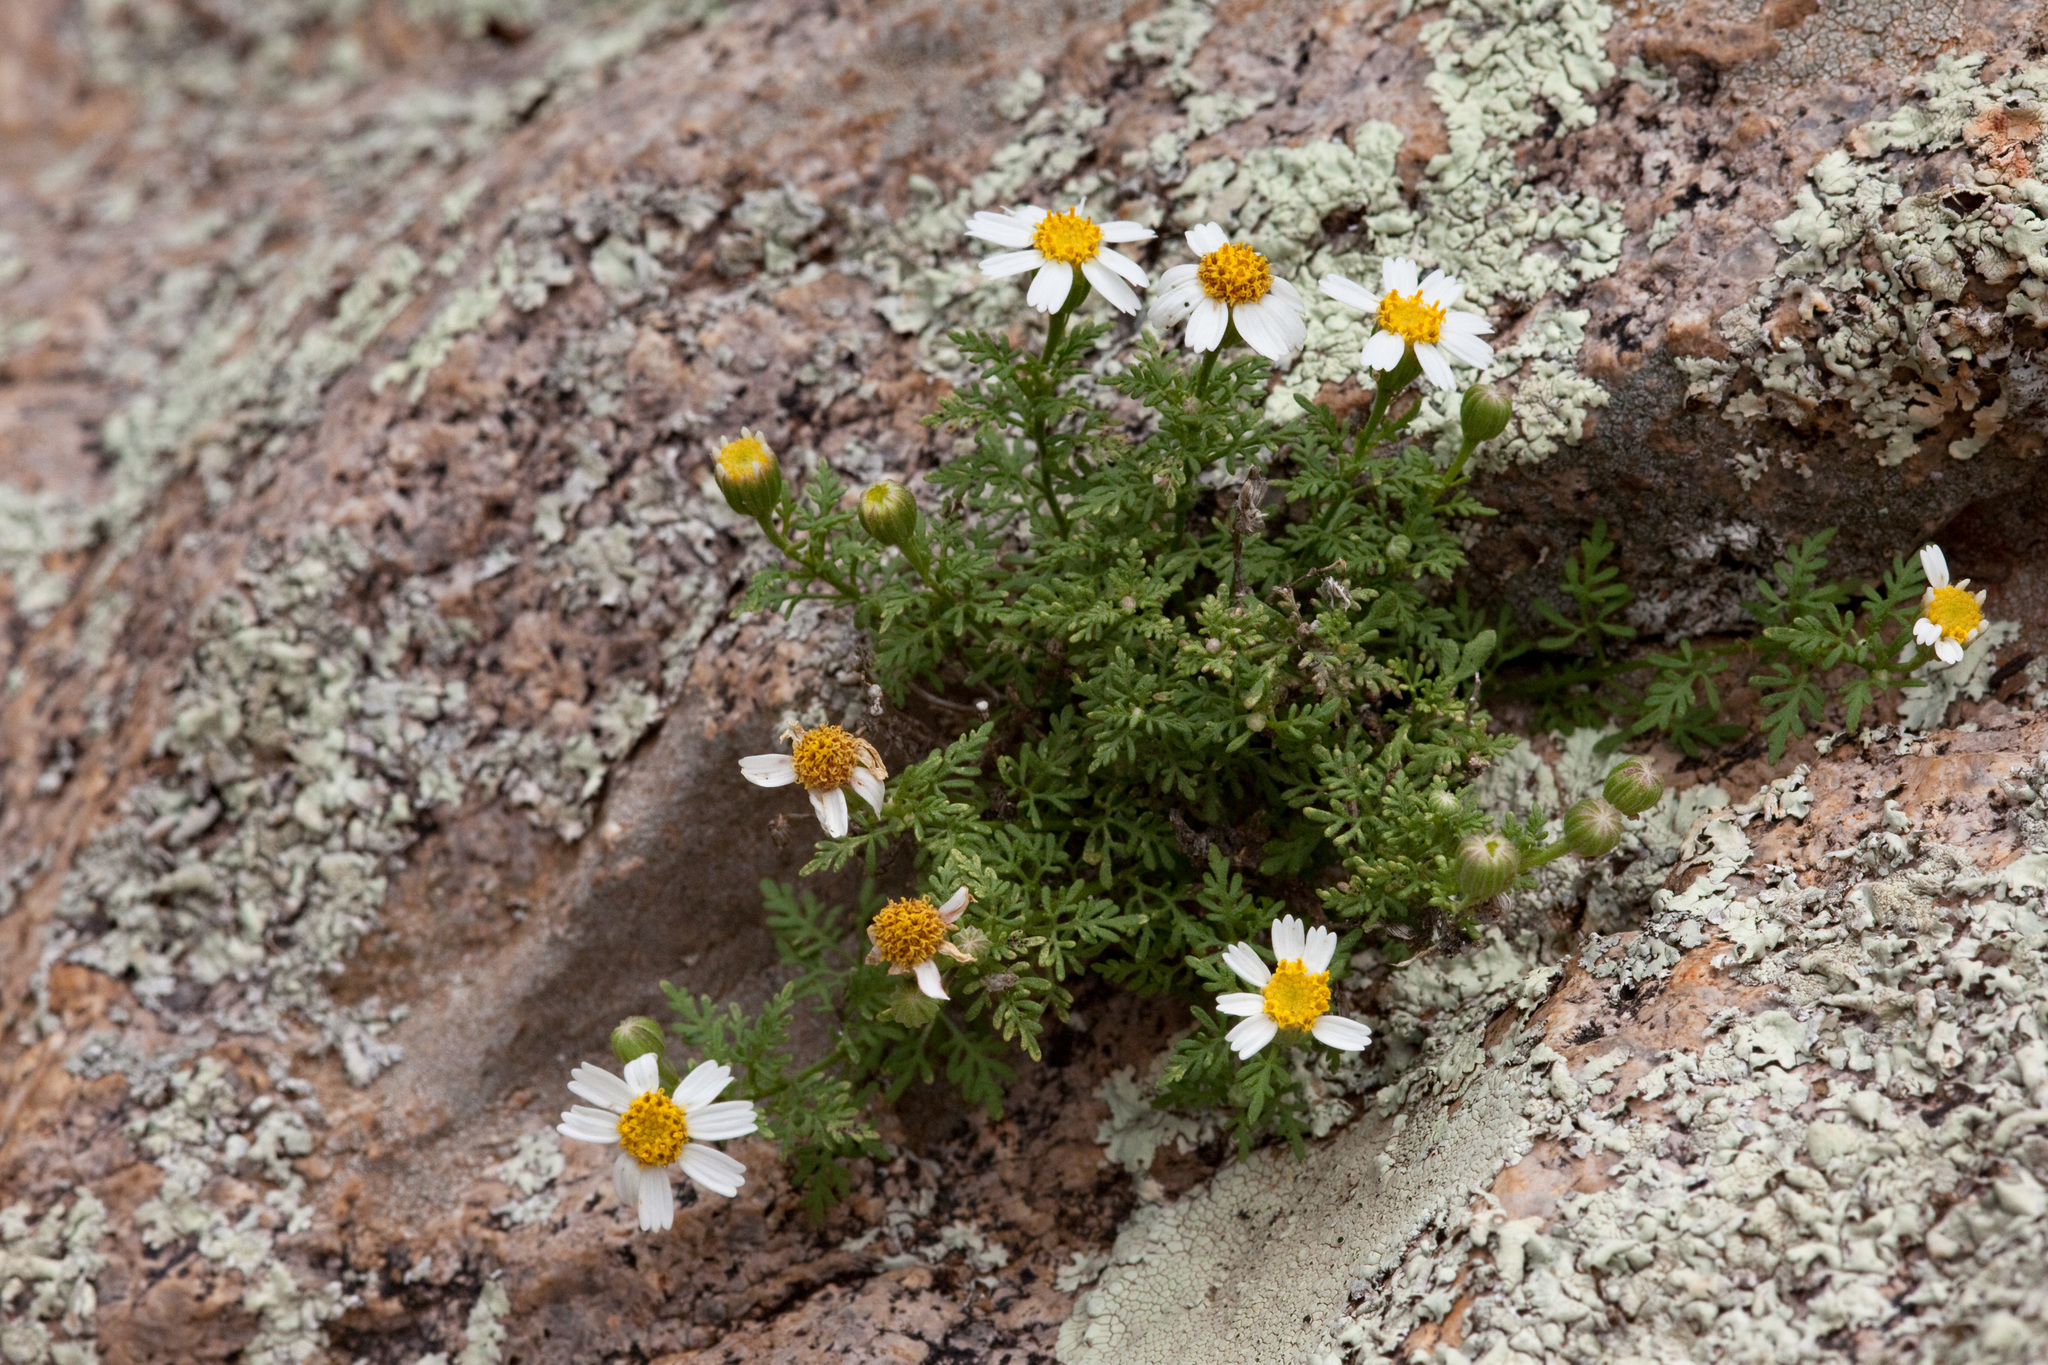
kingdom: Plantae
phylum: Tracheophyta
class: Magnoliopsida
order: Asterales
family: Asteraceae
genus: Galinsogeopsis
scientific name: Galinsogeopsis coronopifolia
